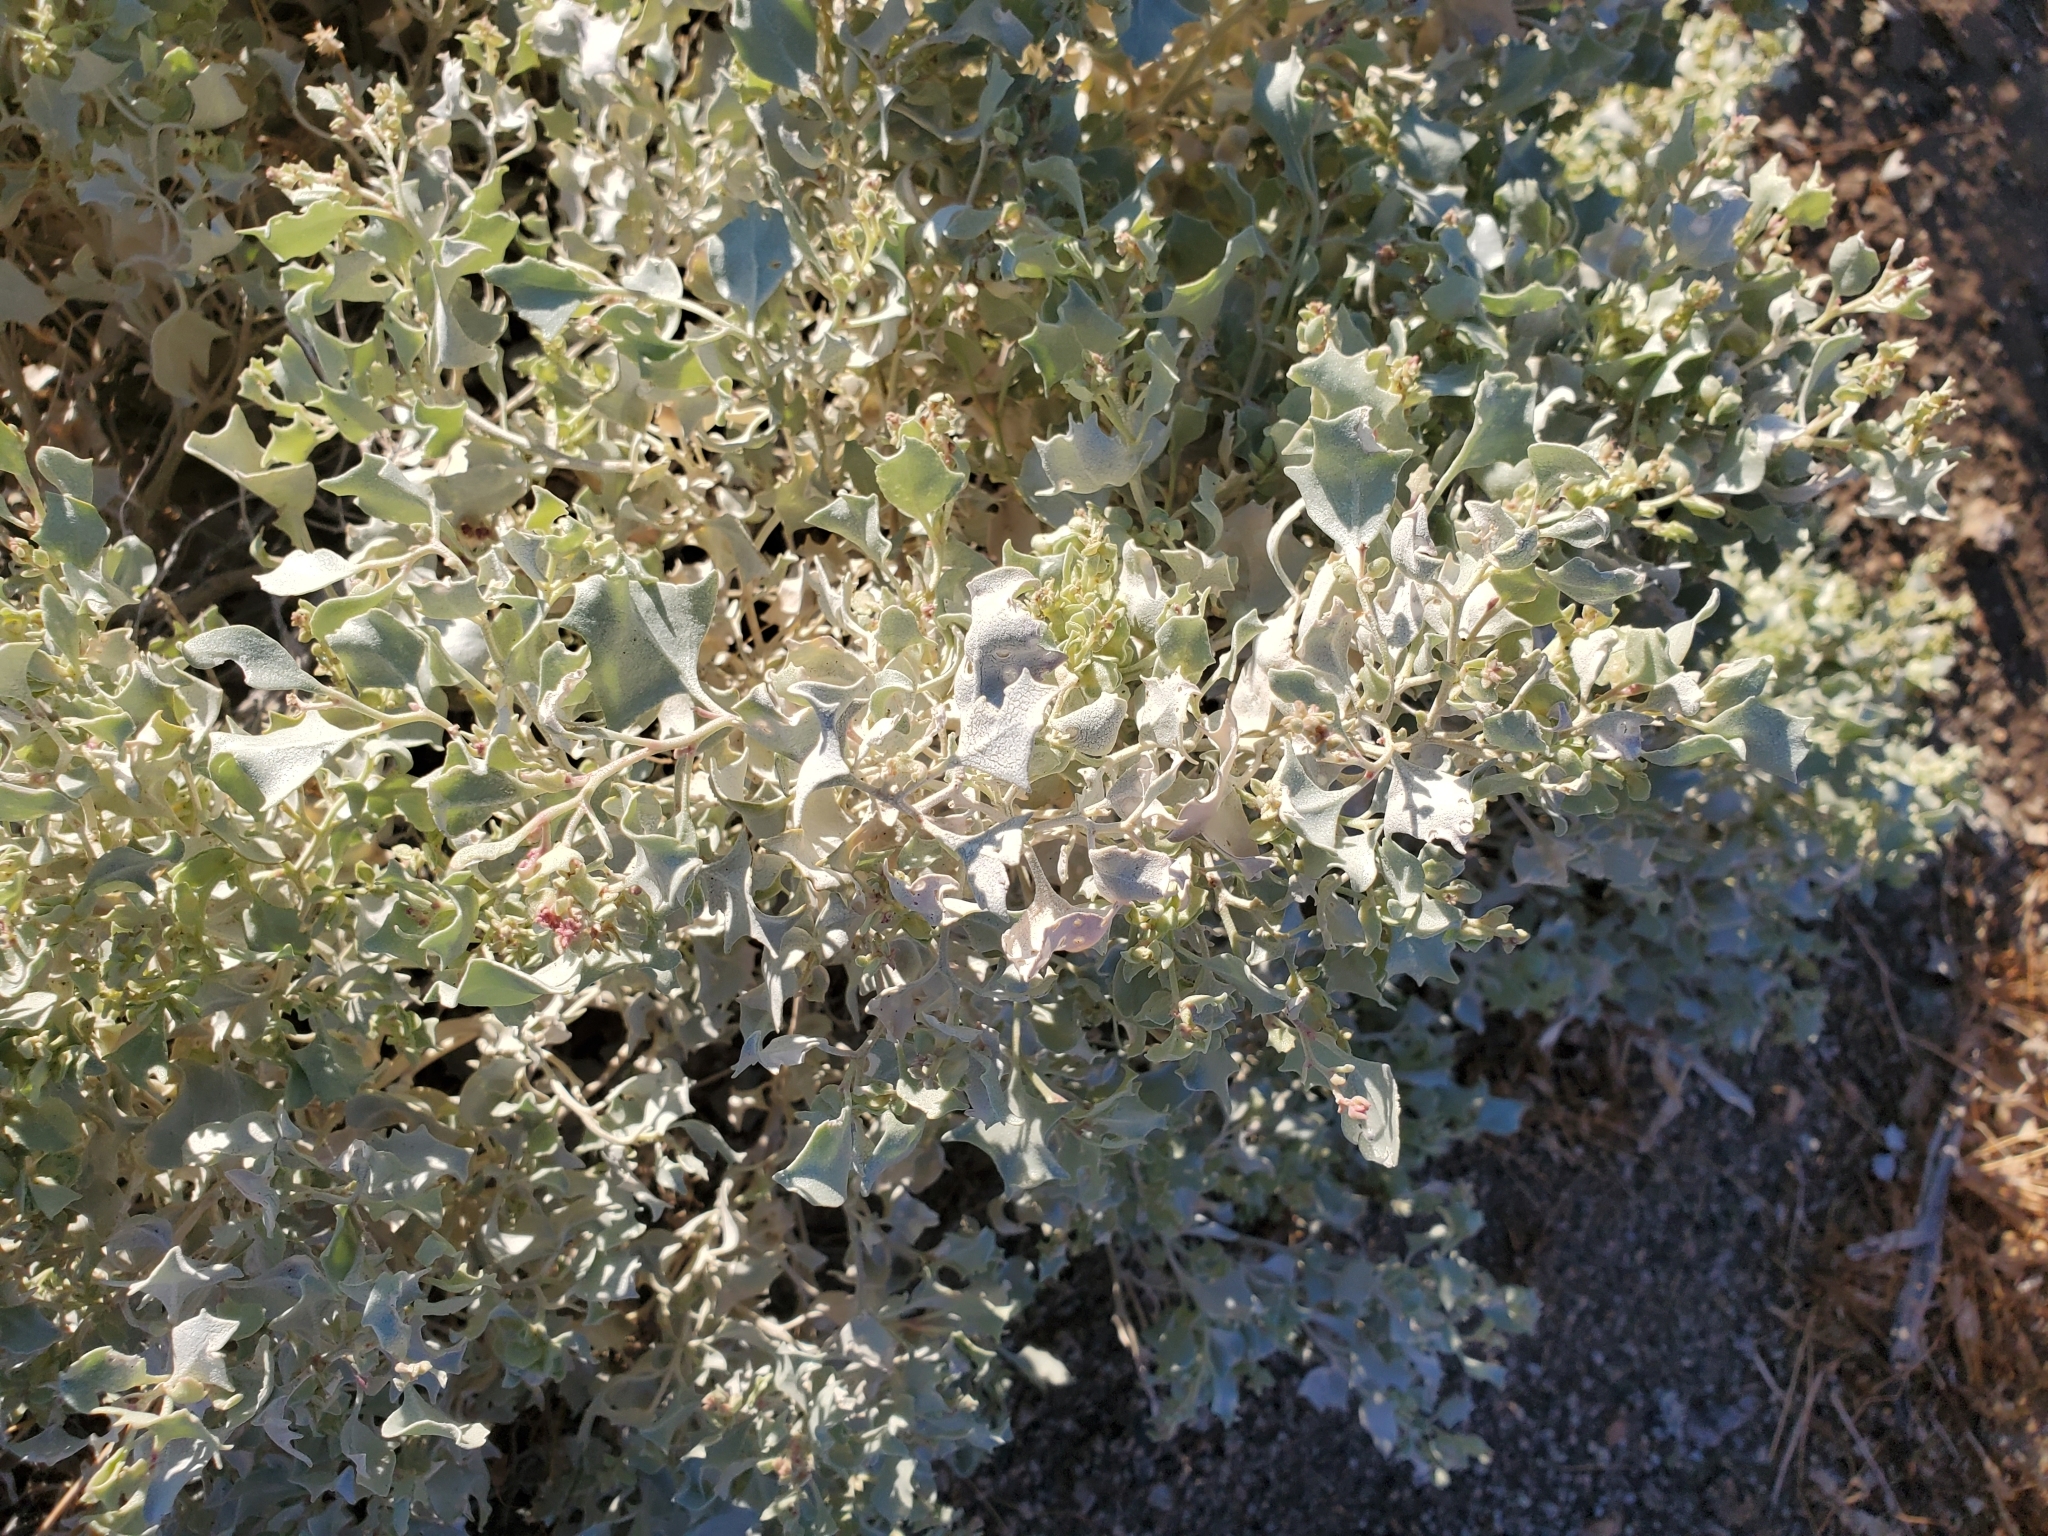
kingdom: Plantae
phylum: Tracheophyta
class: Magnoliopsida
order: Caryophyllales
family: Amaranthaceae
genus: Atriplex
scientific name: Atriplex hymenelytra
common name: Desert-holly
